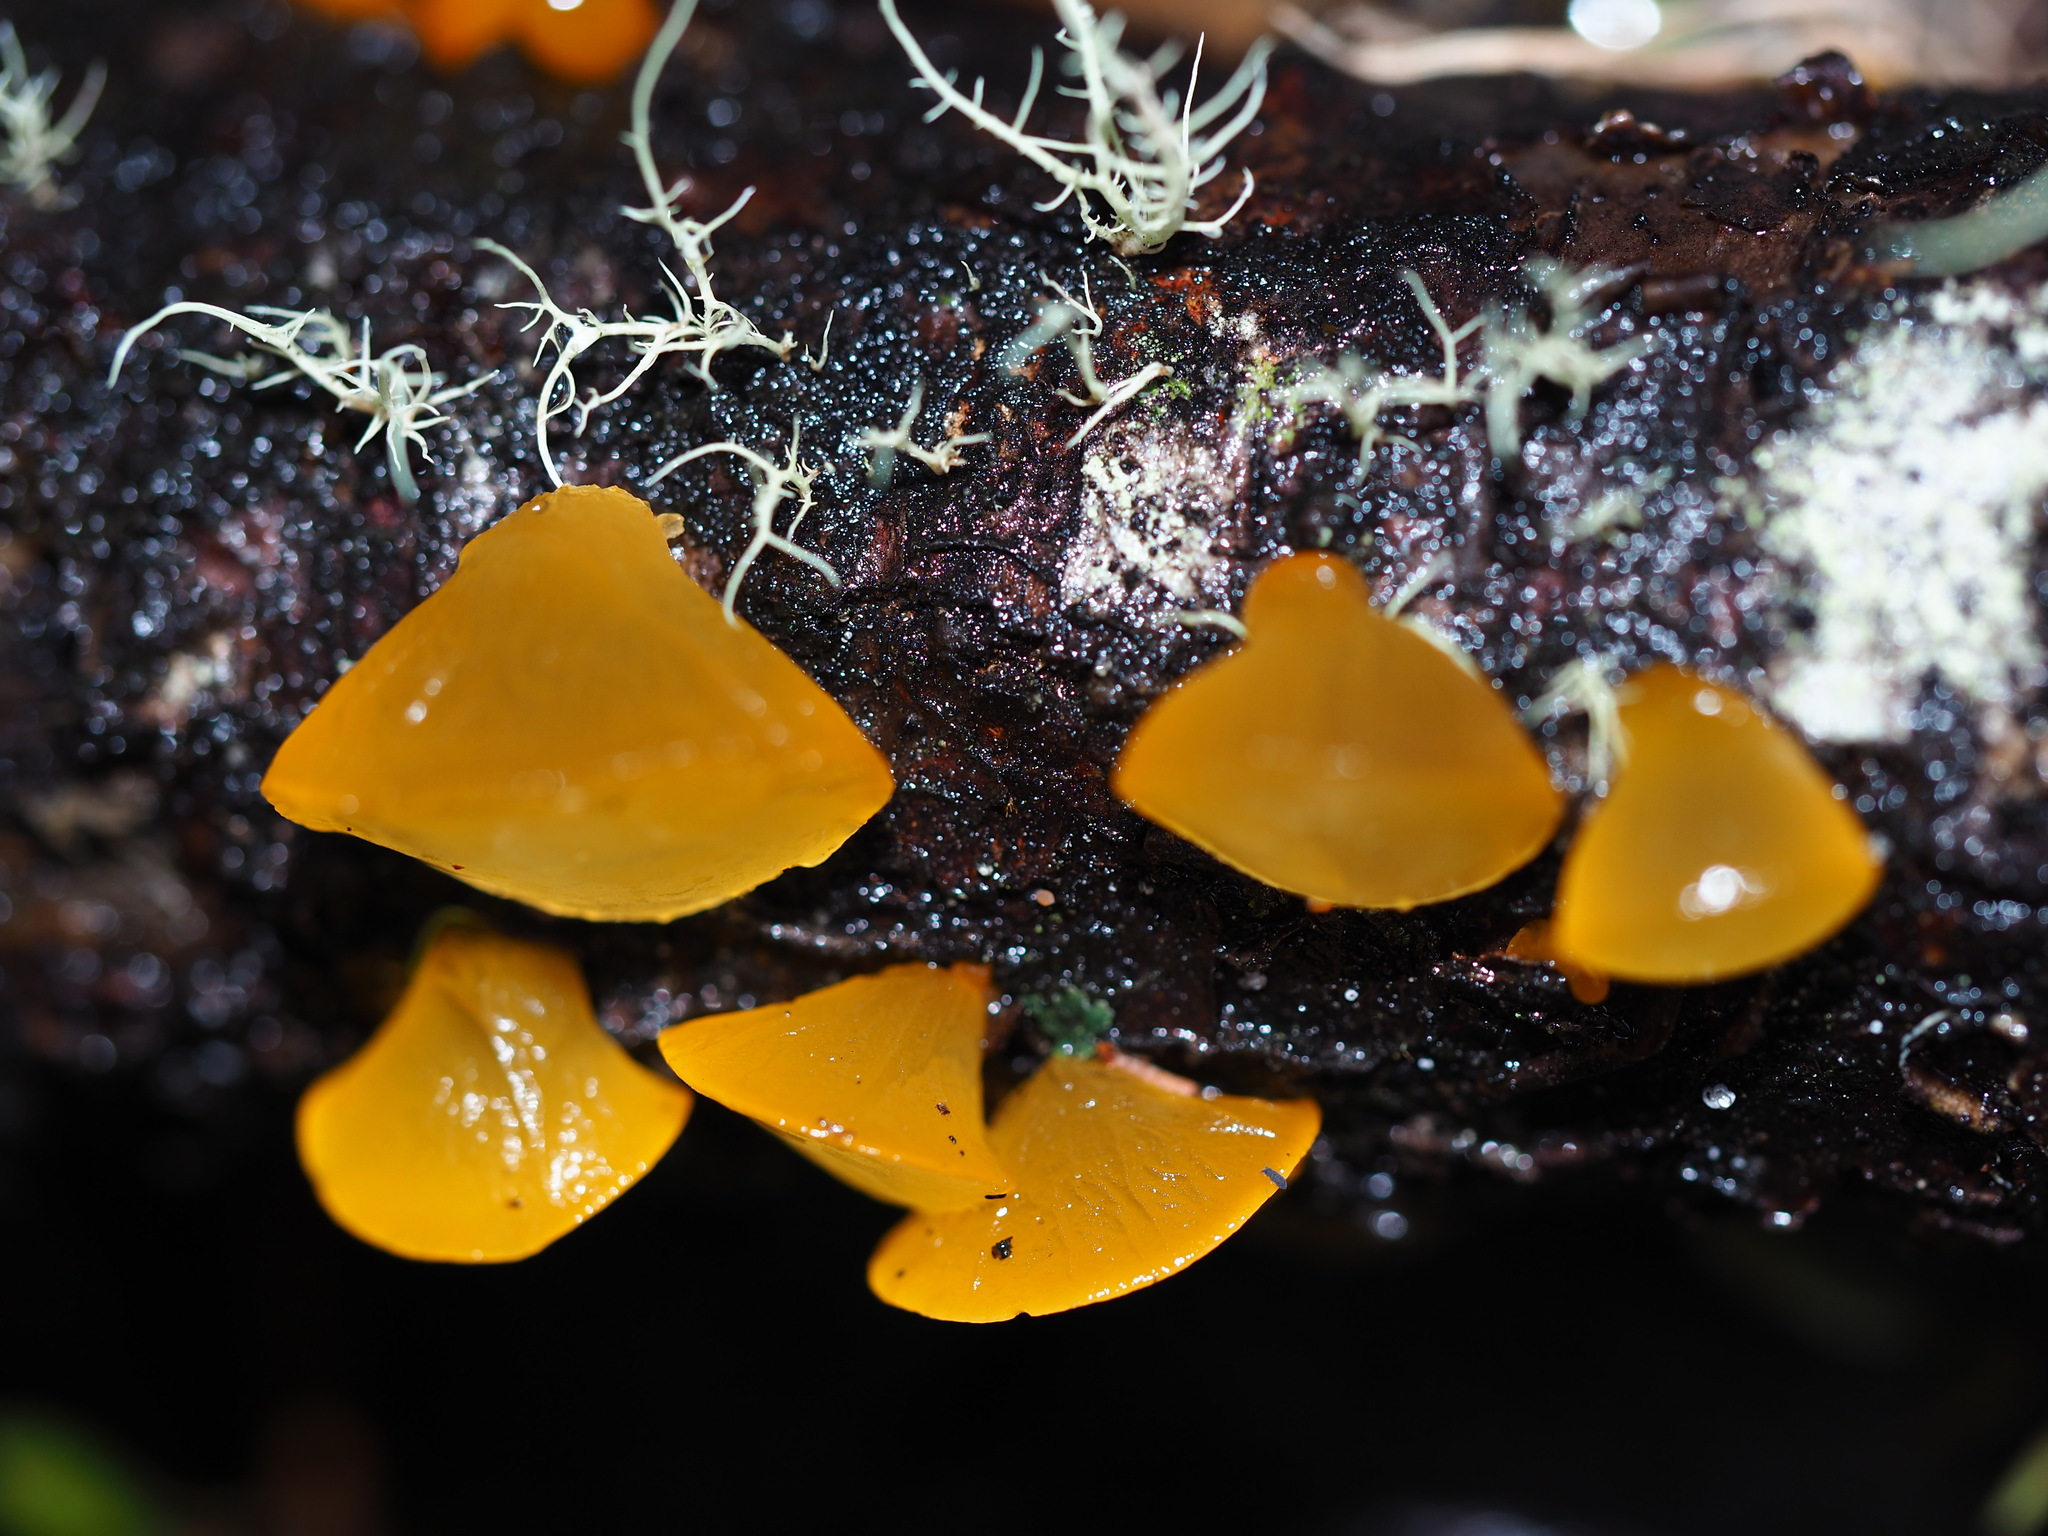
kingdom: Fungi
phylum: Basidiomycota
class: Dacrymycetes
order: Dacrymycetales
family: Dacrymycetaceae
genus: Heterotextus
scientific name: Heterotextus miltinus
